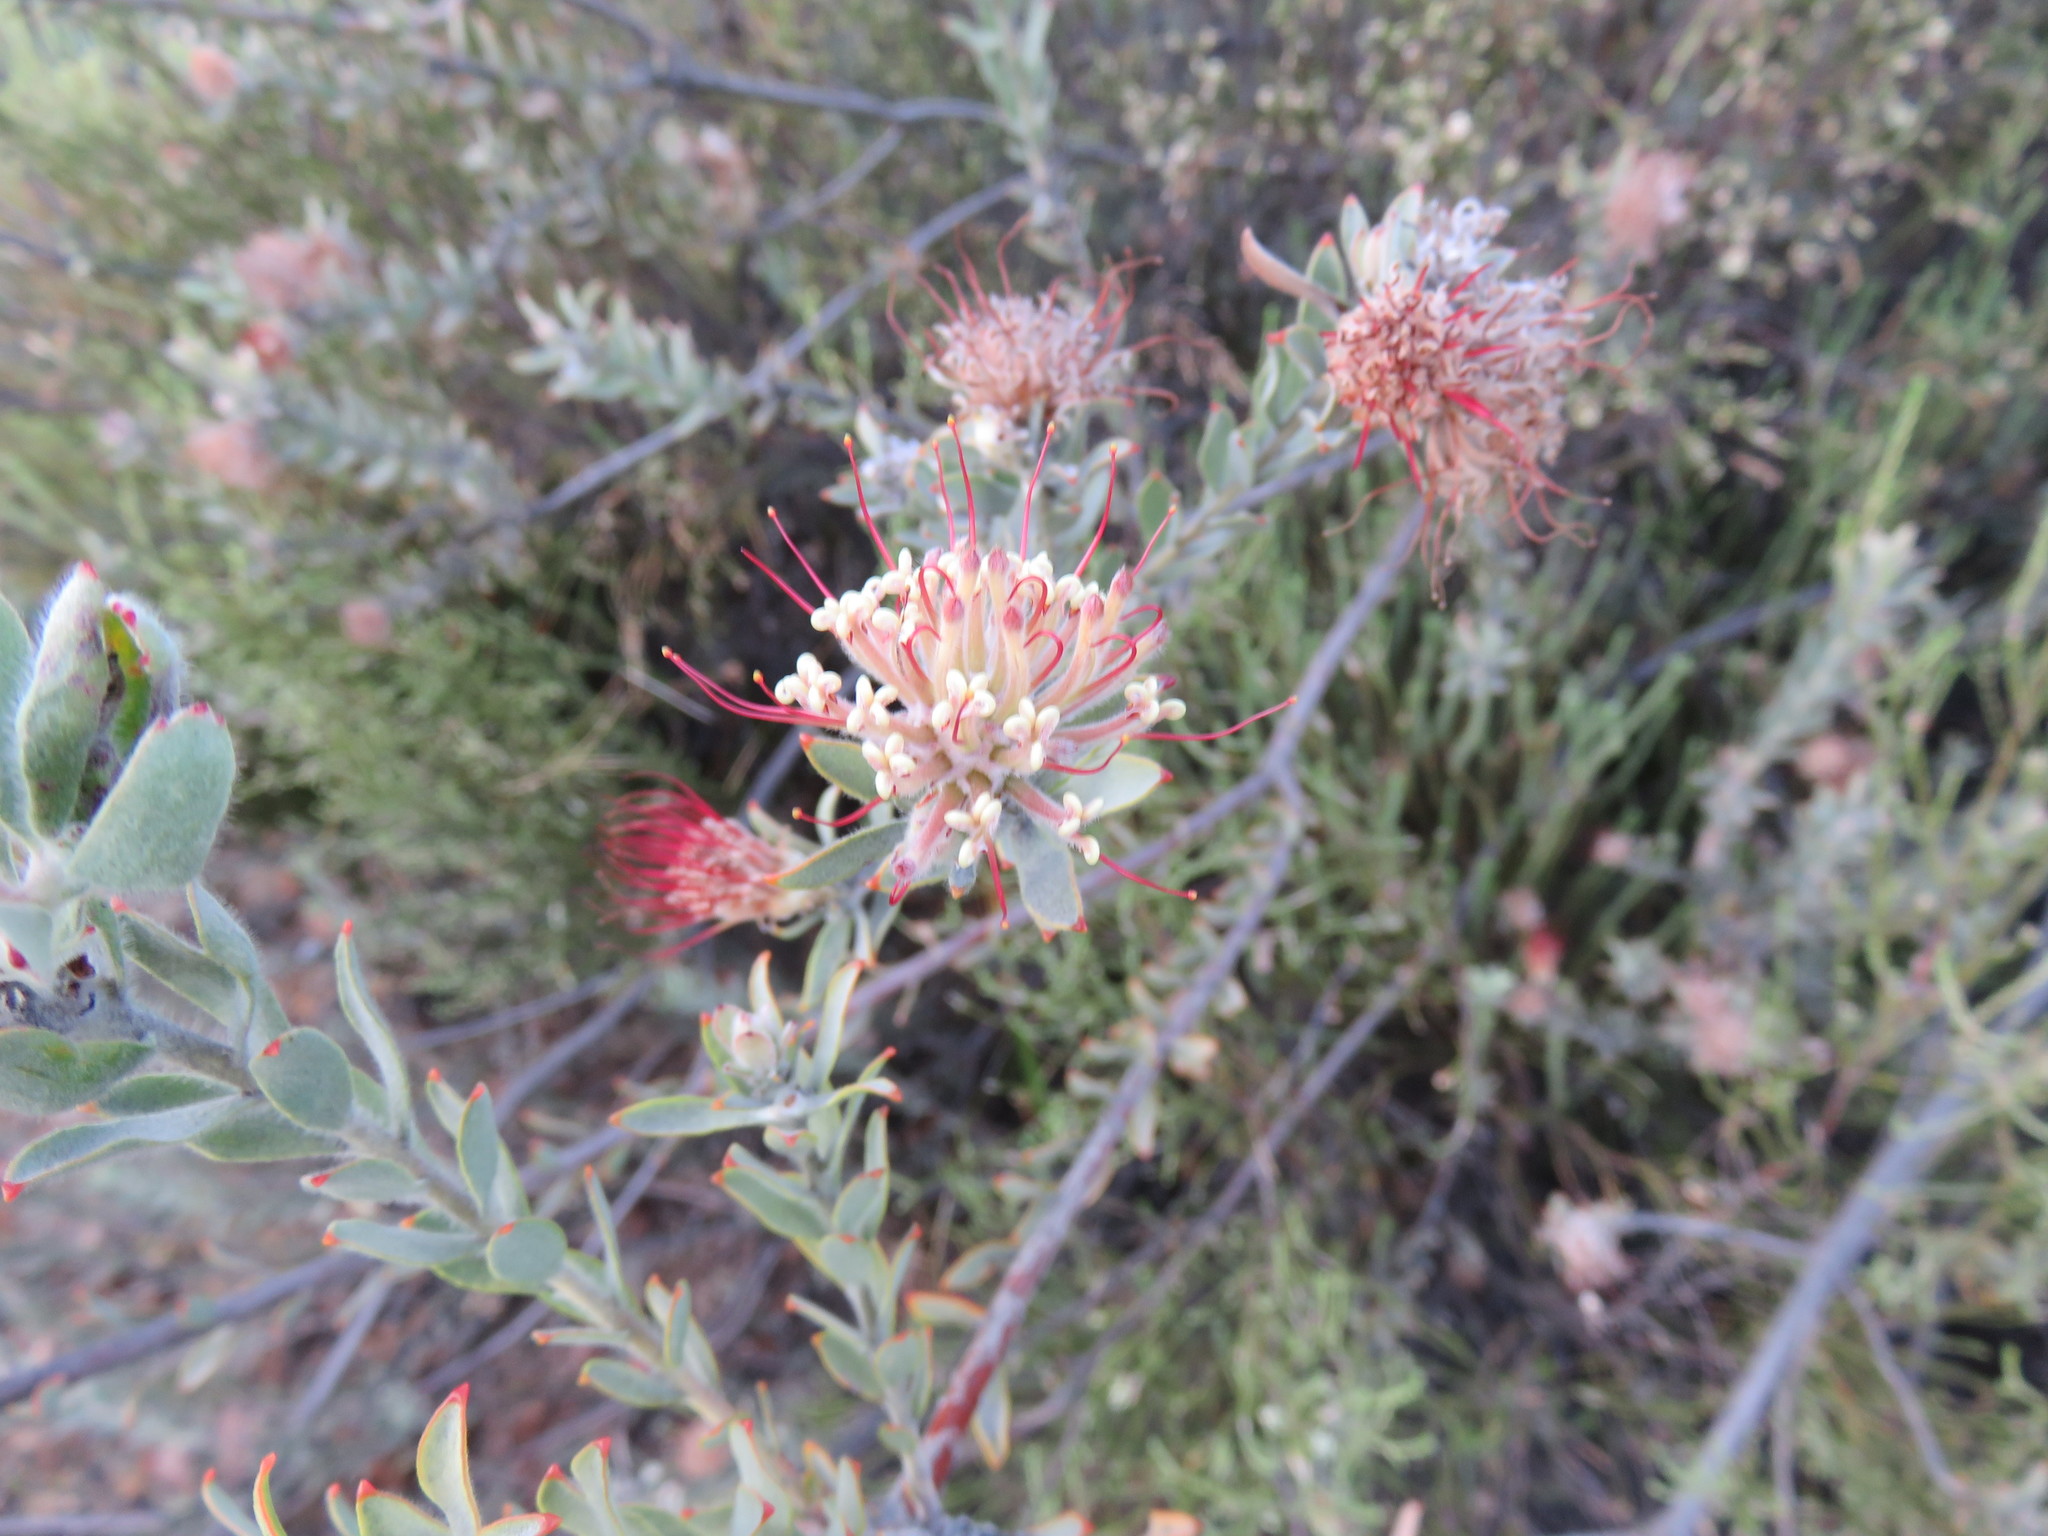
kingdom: Plantae
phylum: Tracheophyta
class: Magnoliopsida
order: Proteales
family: Proteaceae
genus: Leucospermum
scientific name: Leucospermum calligerum
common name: Arid pincushion
